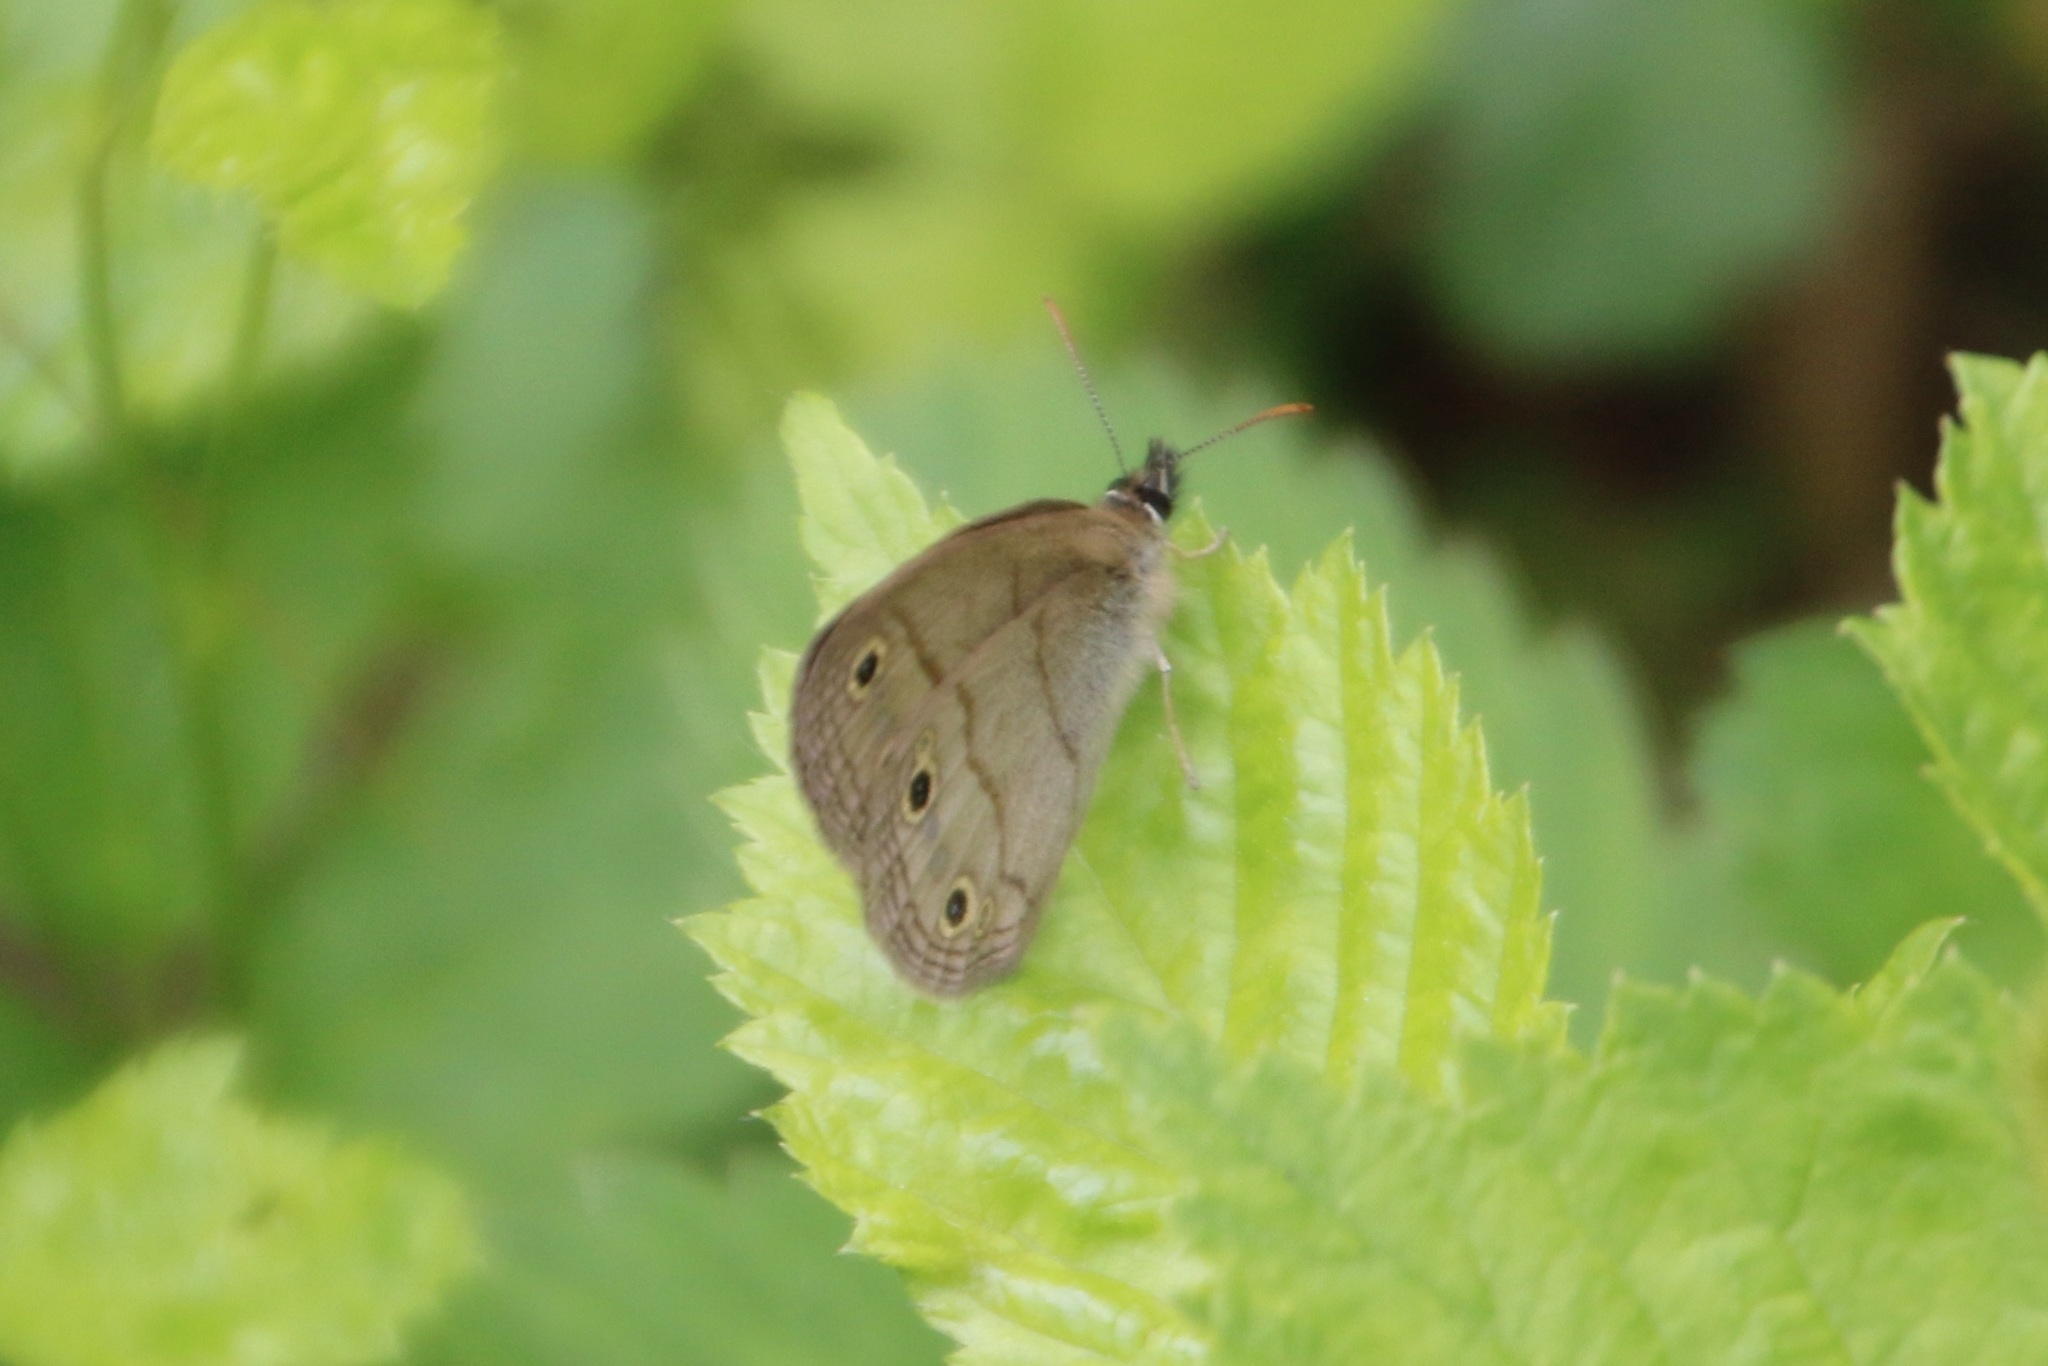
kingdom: Animalia
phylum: Arthropoda
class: Insecta
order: Lepidoptera
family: Nymphalidae
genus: Euptychia
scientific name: Euptychia cymela
